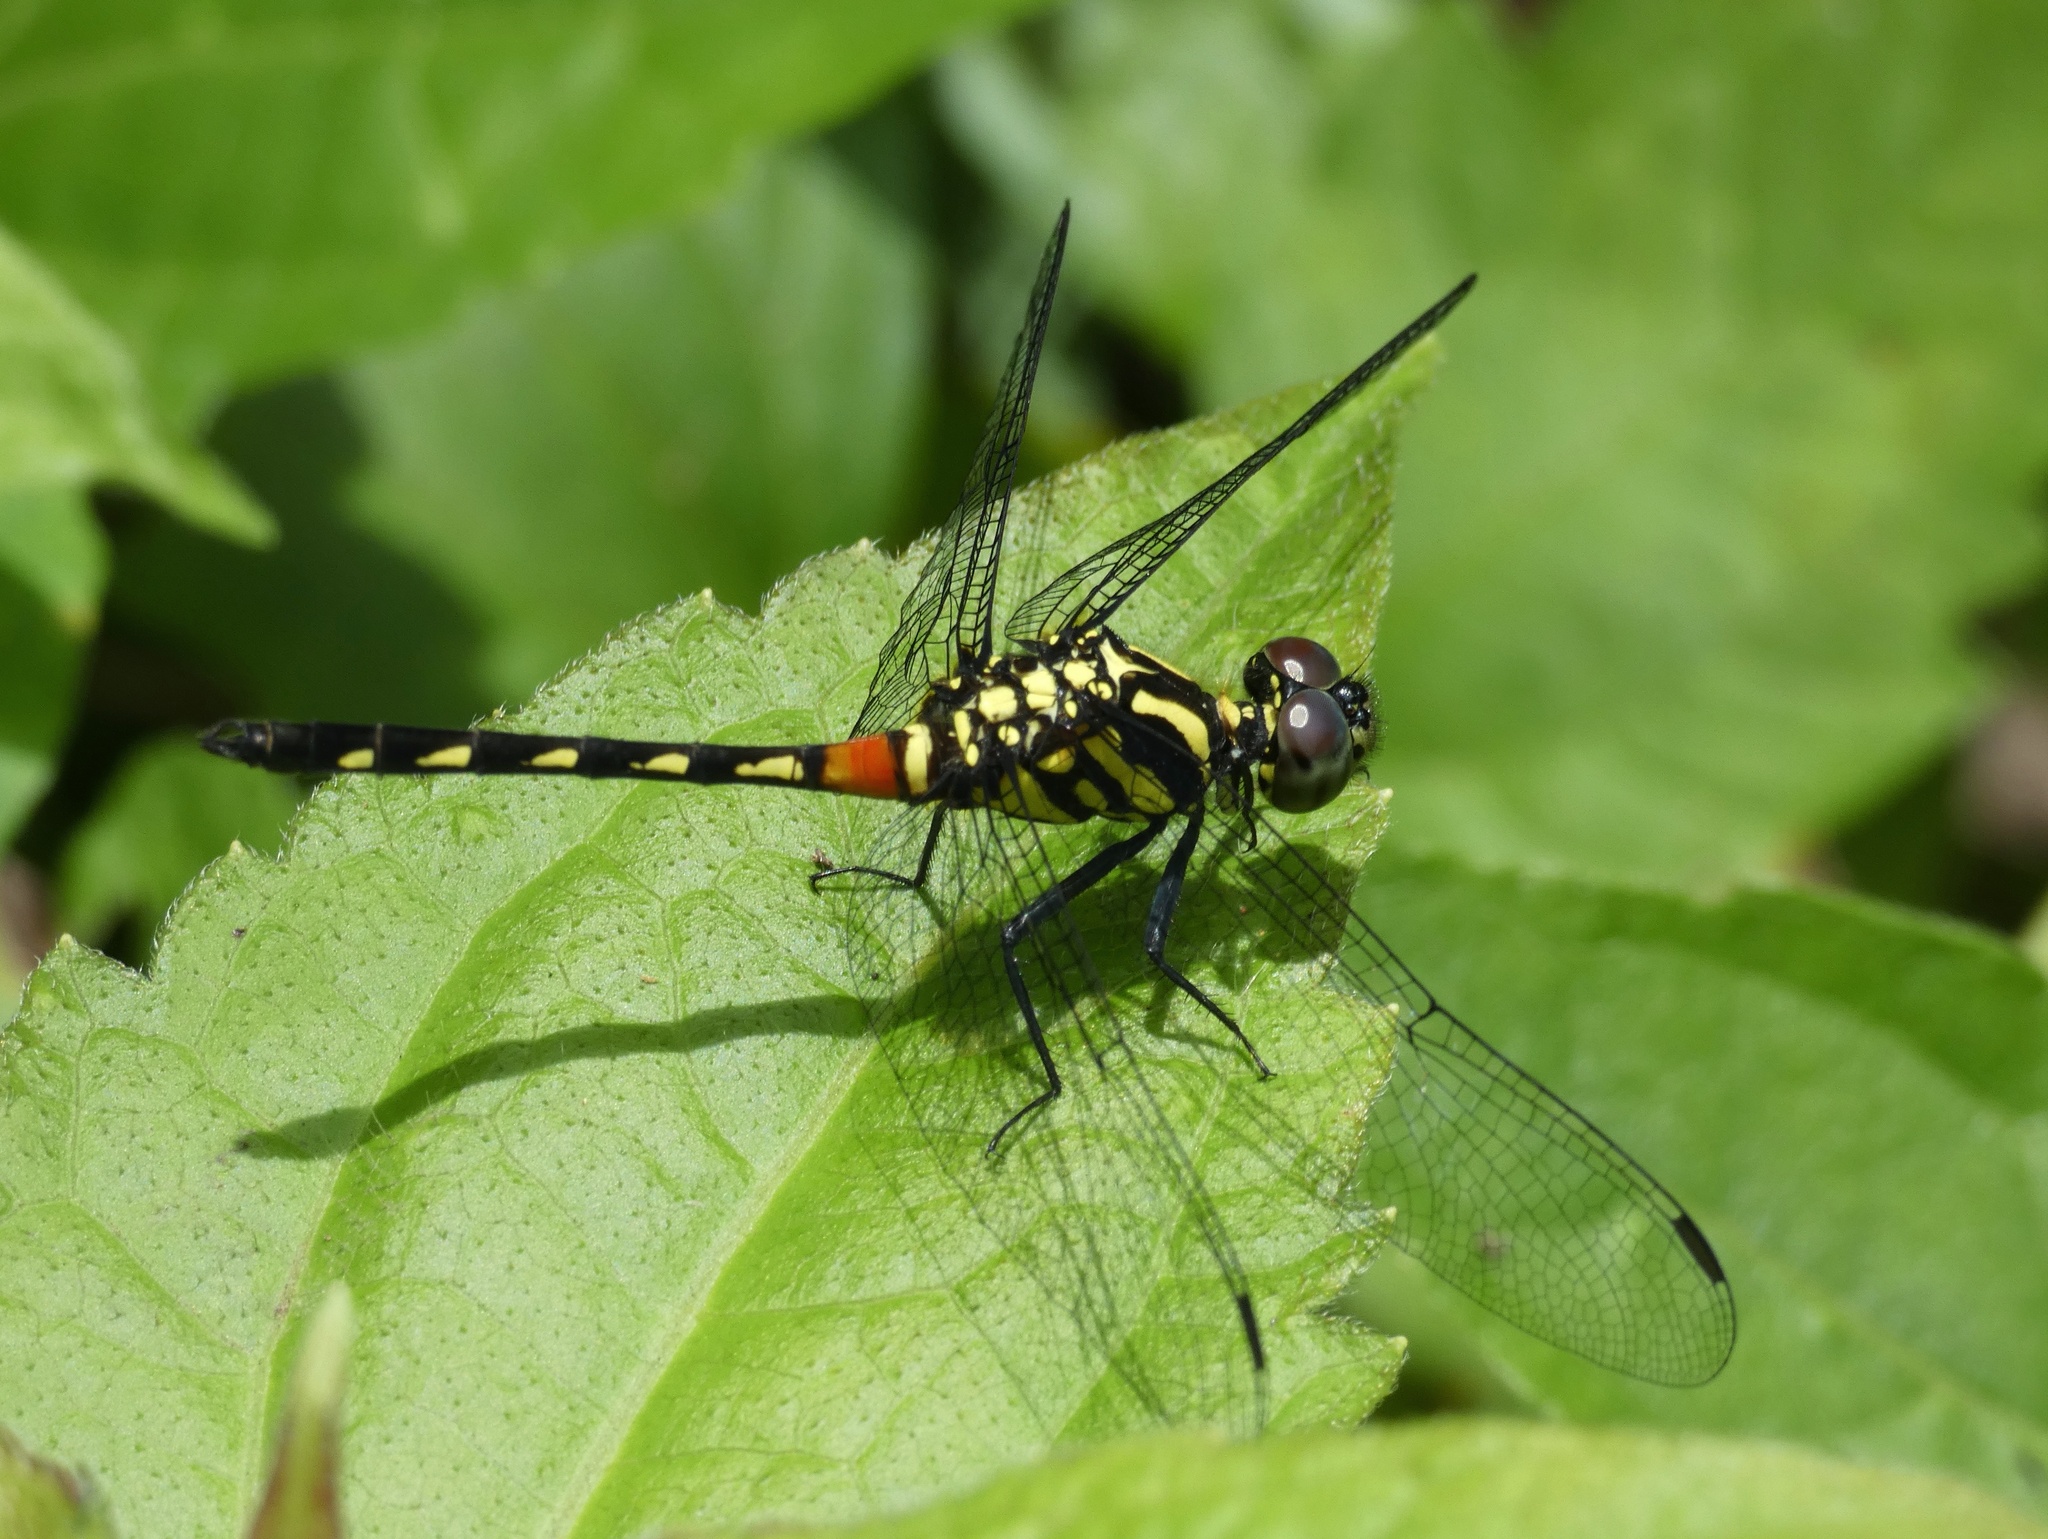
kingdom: Animalia
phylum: Arthropoda
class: Insecta
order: Odonata
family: Libellulidae
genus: Diplacina
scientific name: Diplacina bolivari
